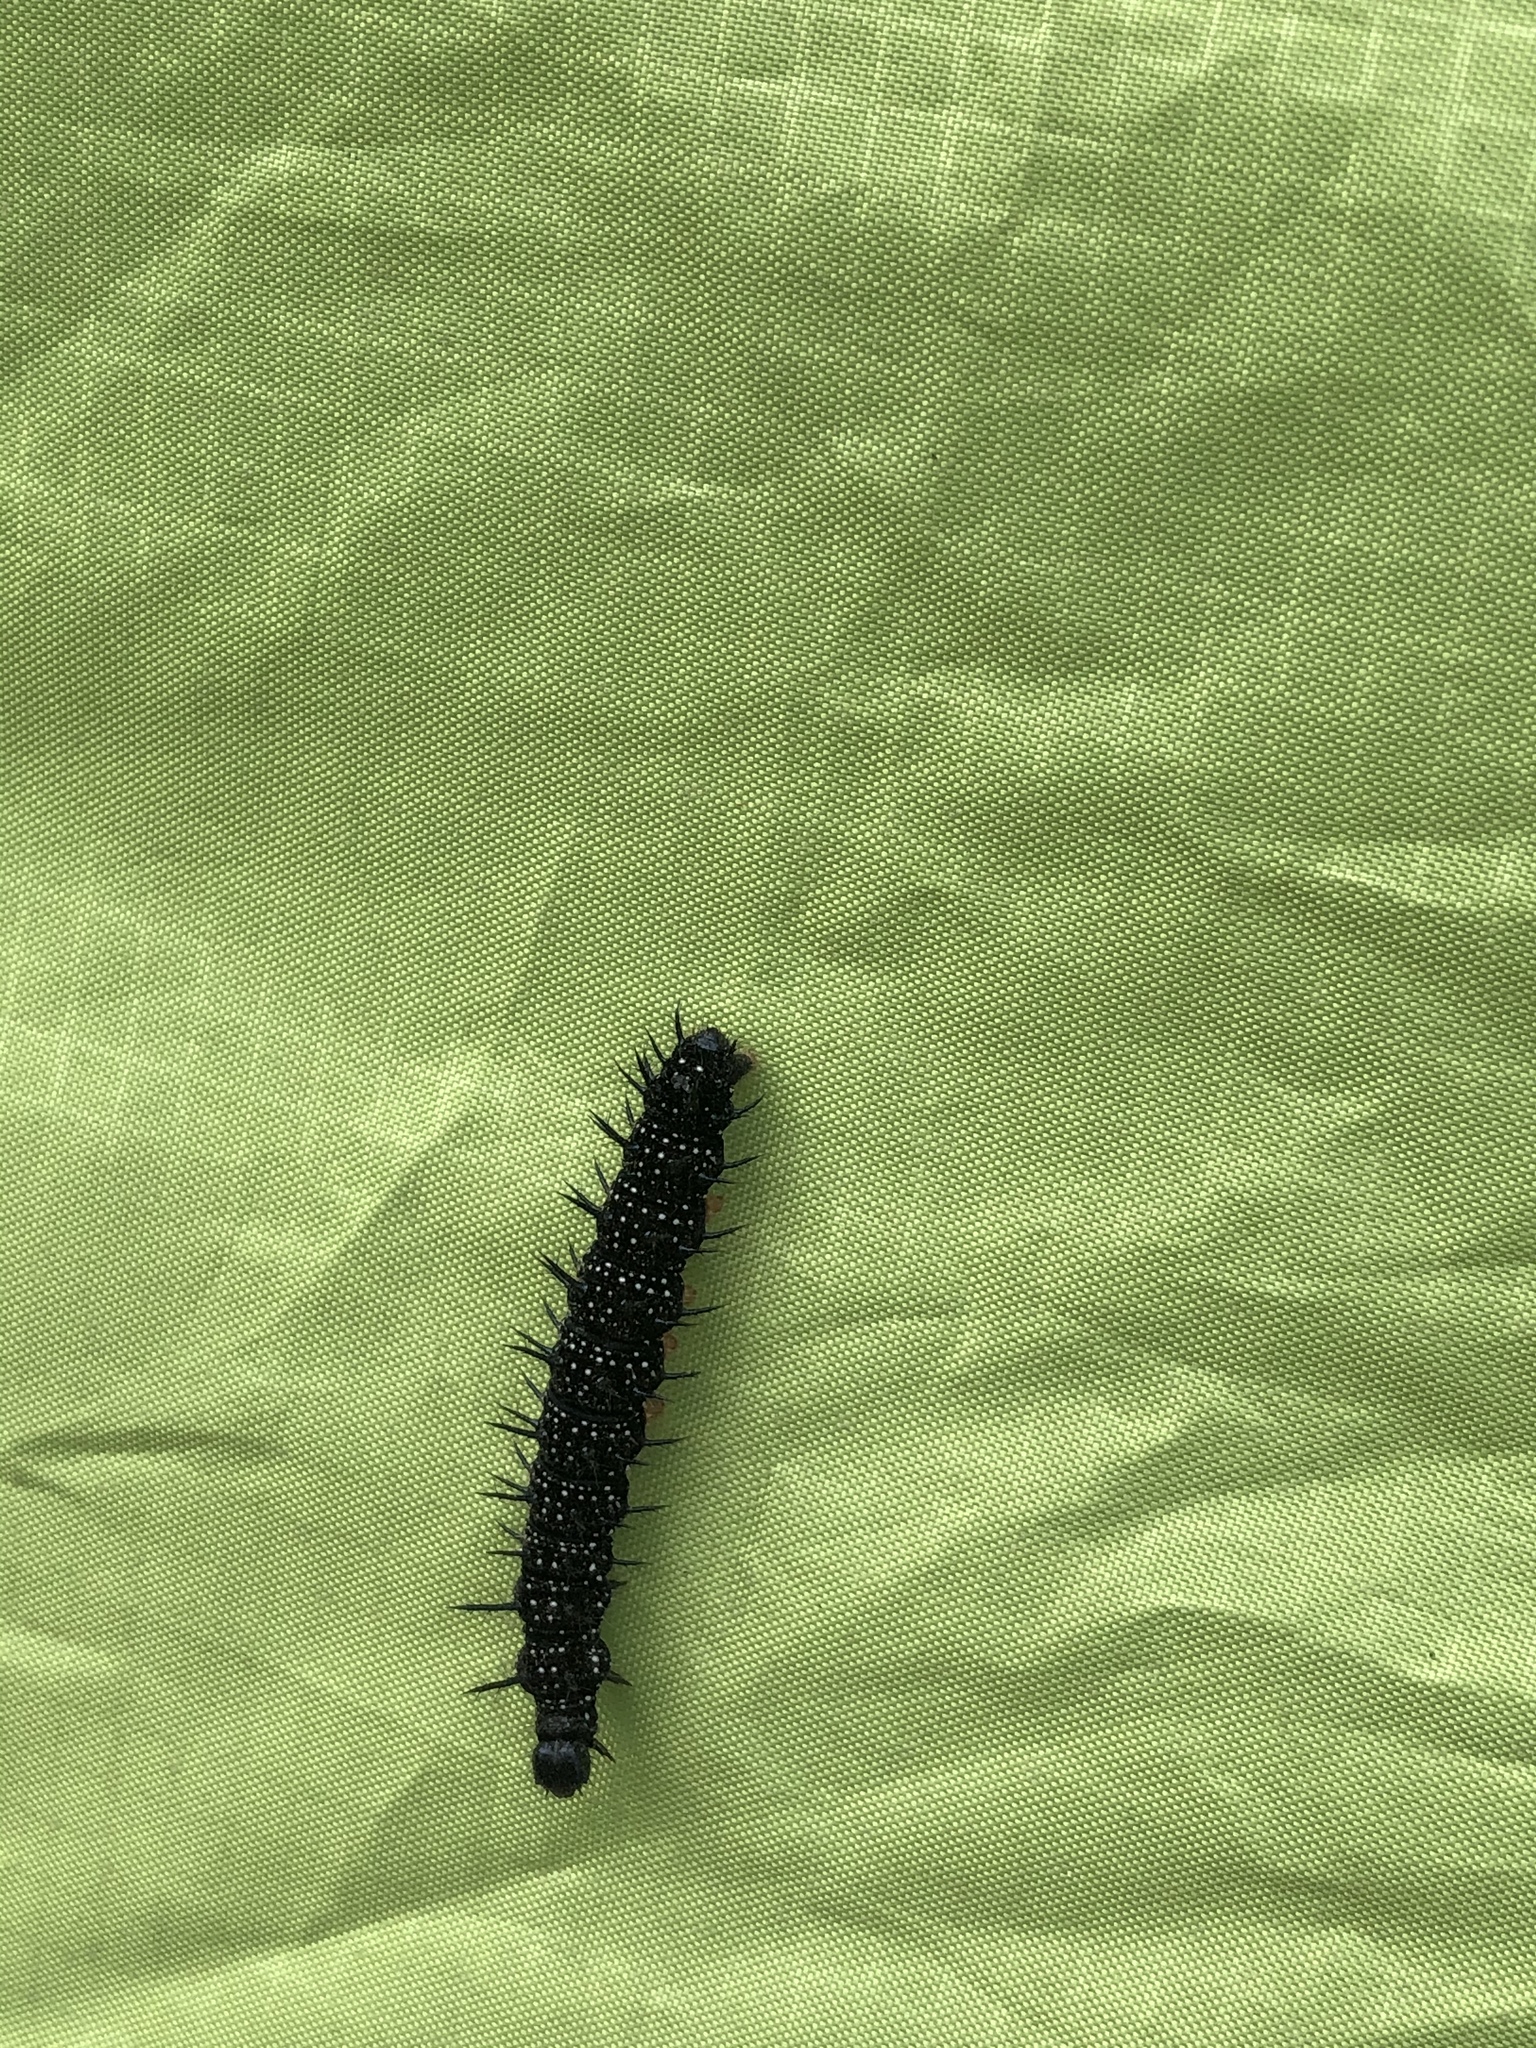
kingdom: Animalia
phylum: Arthropoda
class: Insecta
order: Lepidoptera
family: Nymphalidae
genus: Aglais
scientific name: Aglais io
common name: Peacock
